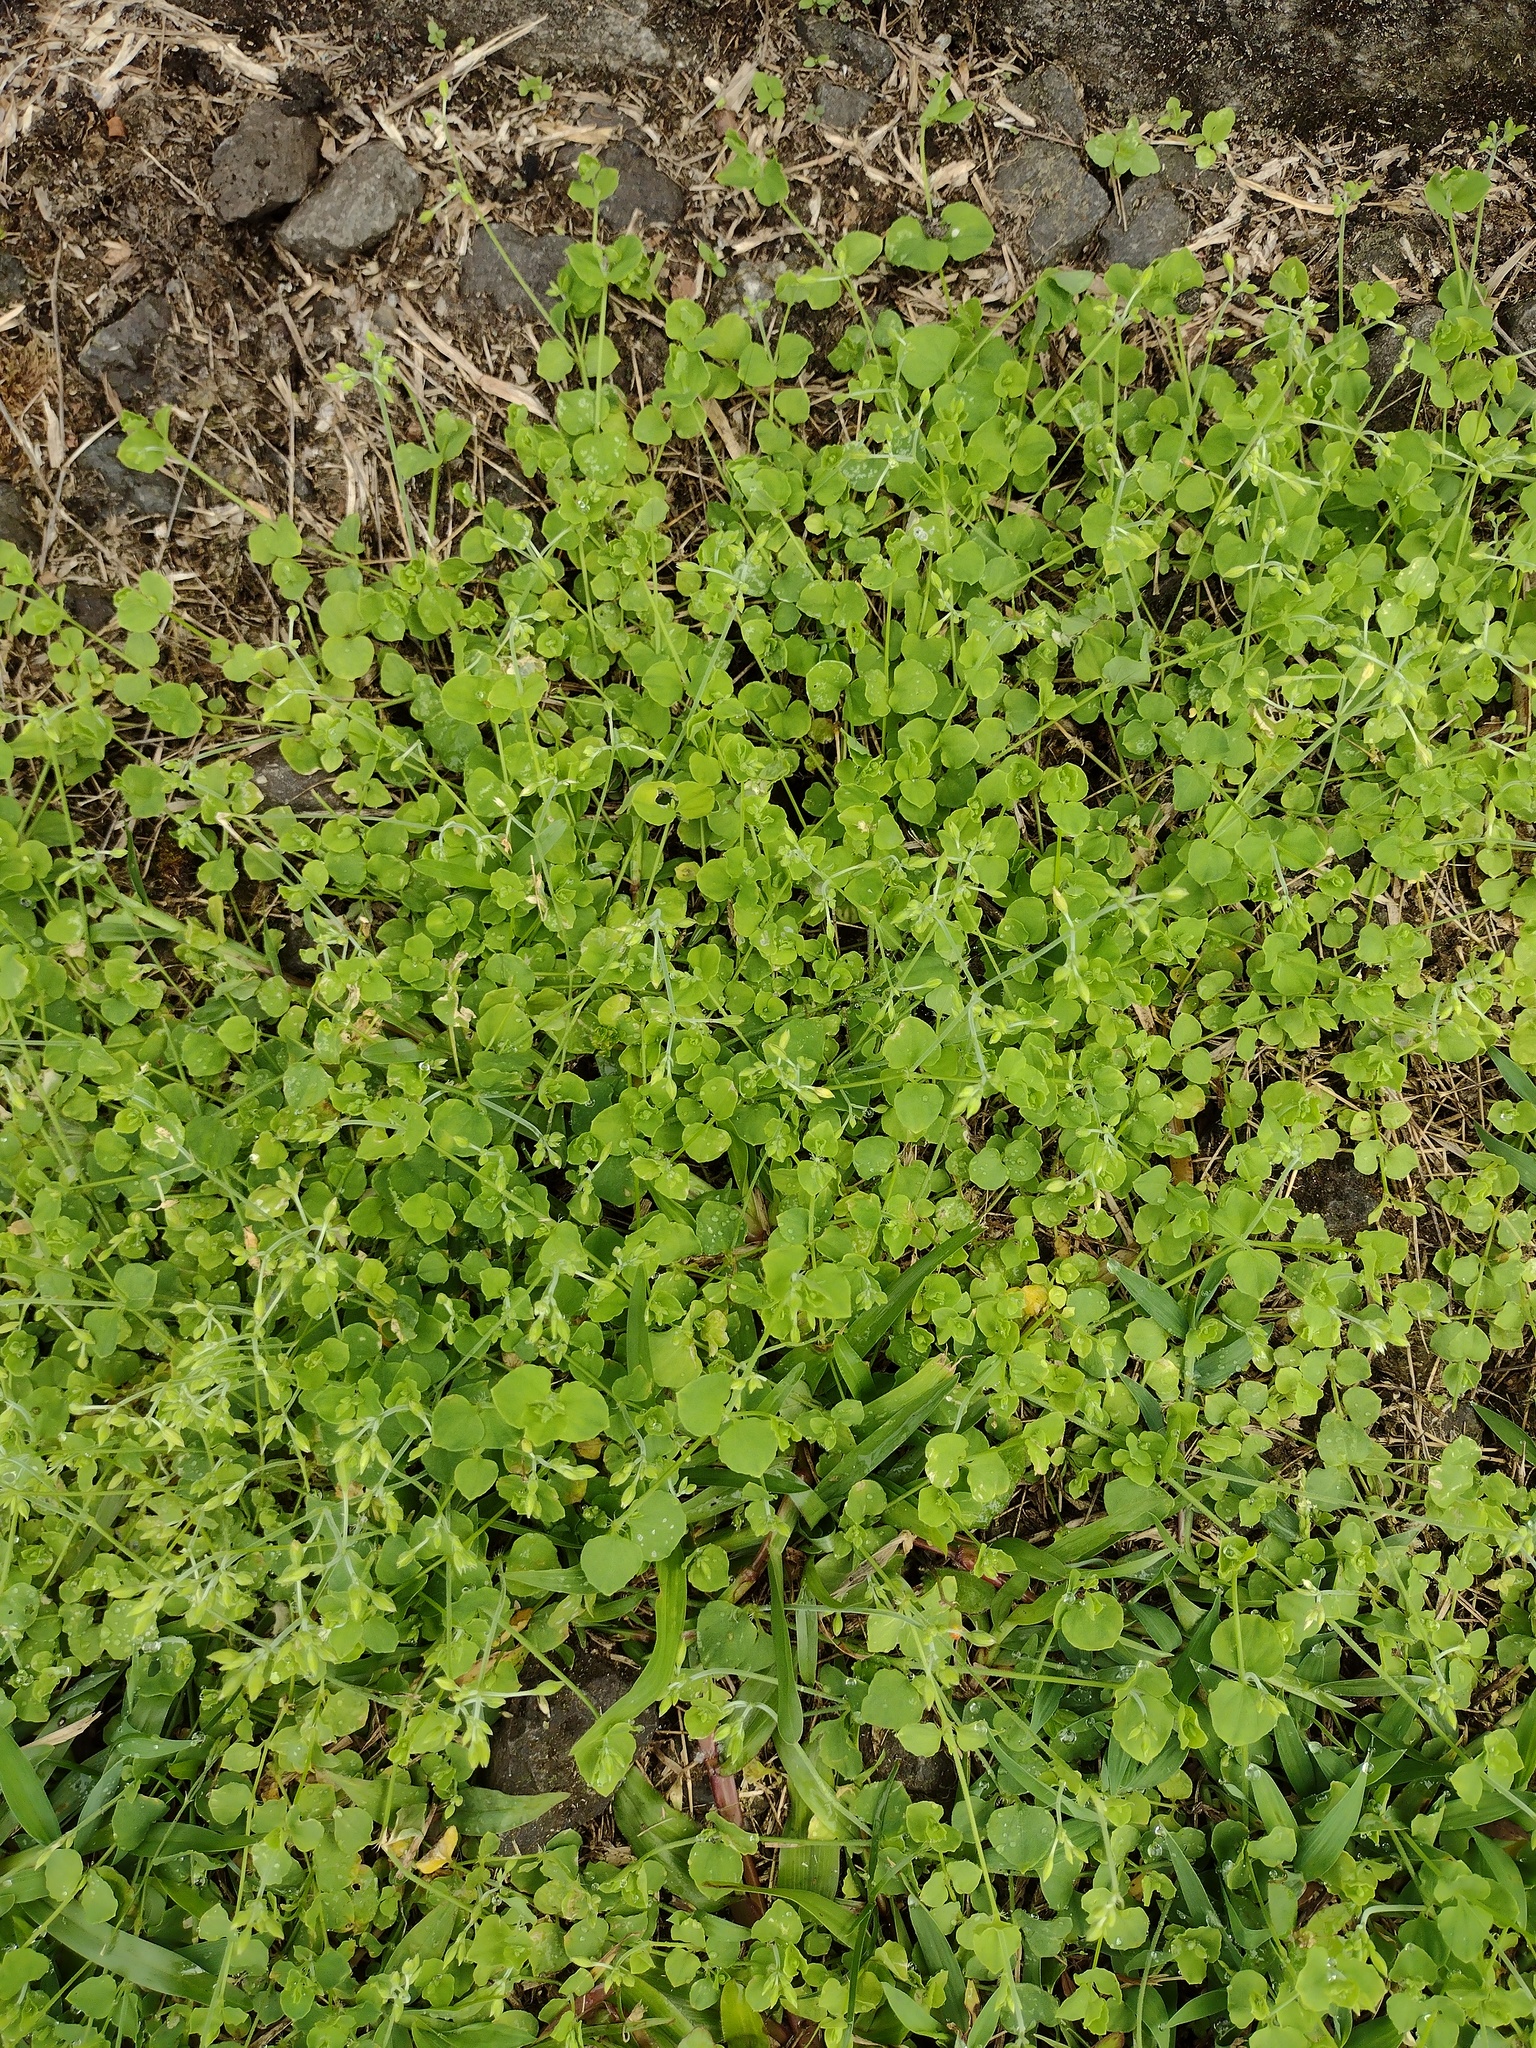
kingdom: Plantae
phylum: Tracheophyta
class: Magnoliopsida
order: Caryophyllales
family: Caryophyllaceae
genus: Drymaria
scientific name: Drymaria cordata
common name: Whitesnow
